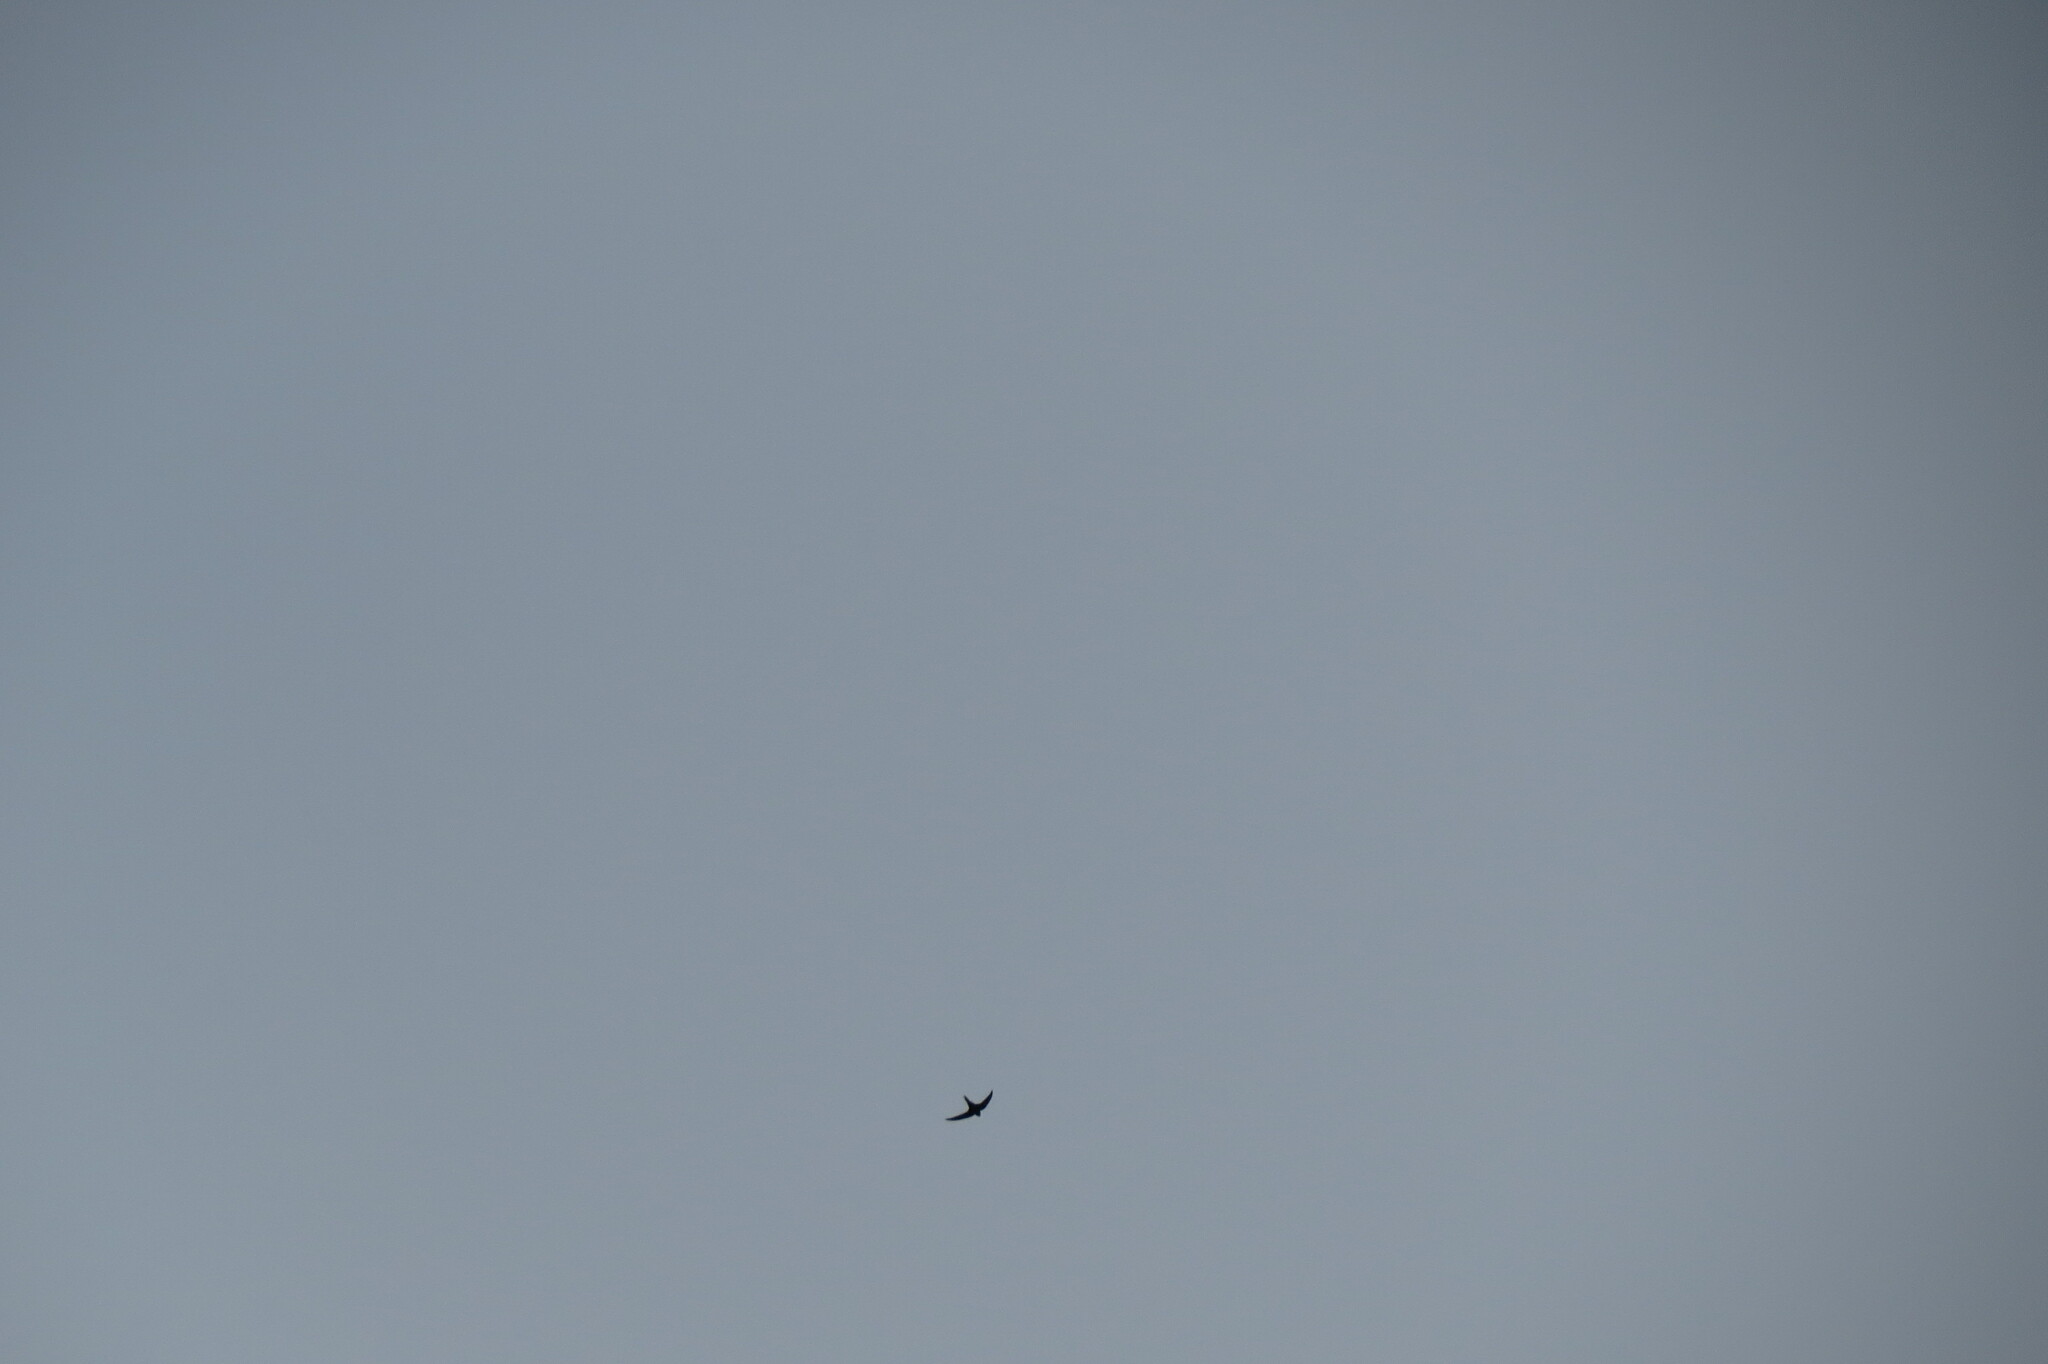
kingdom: Animalia
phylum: Chordata
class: Aves
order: Apodiformes
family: Apodidae
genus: Apus
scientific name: Apus apus
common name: Common swift
